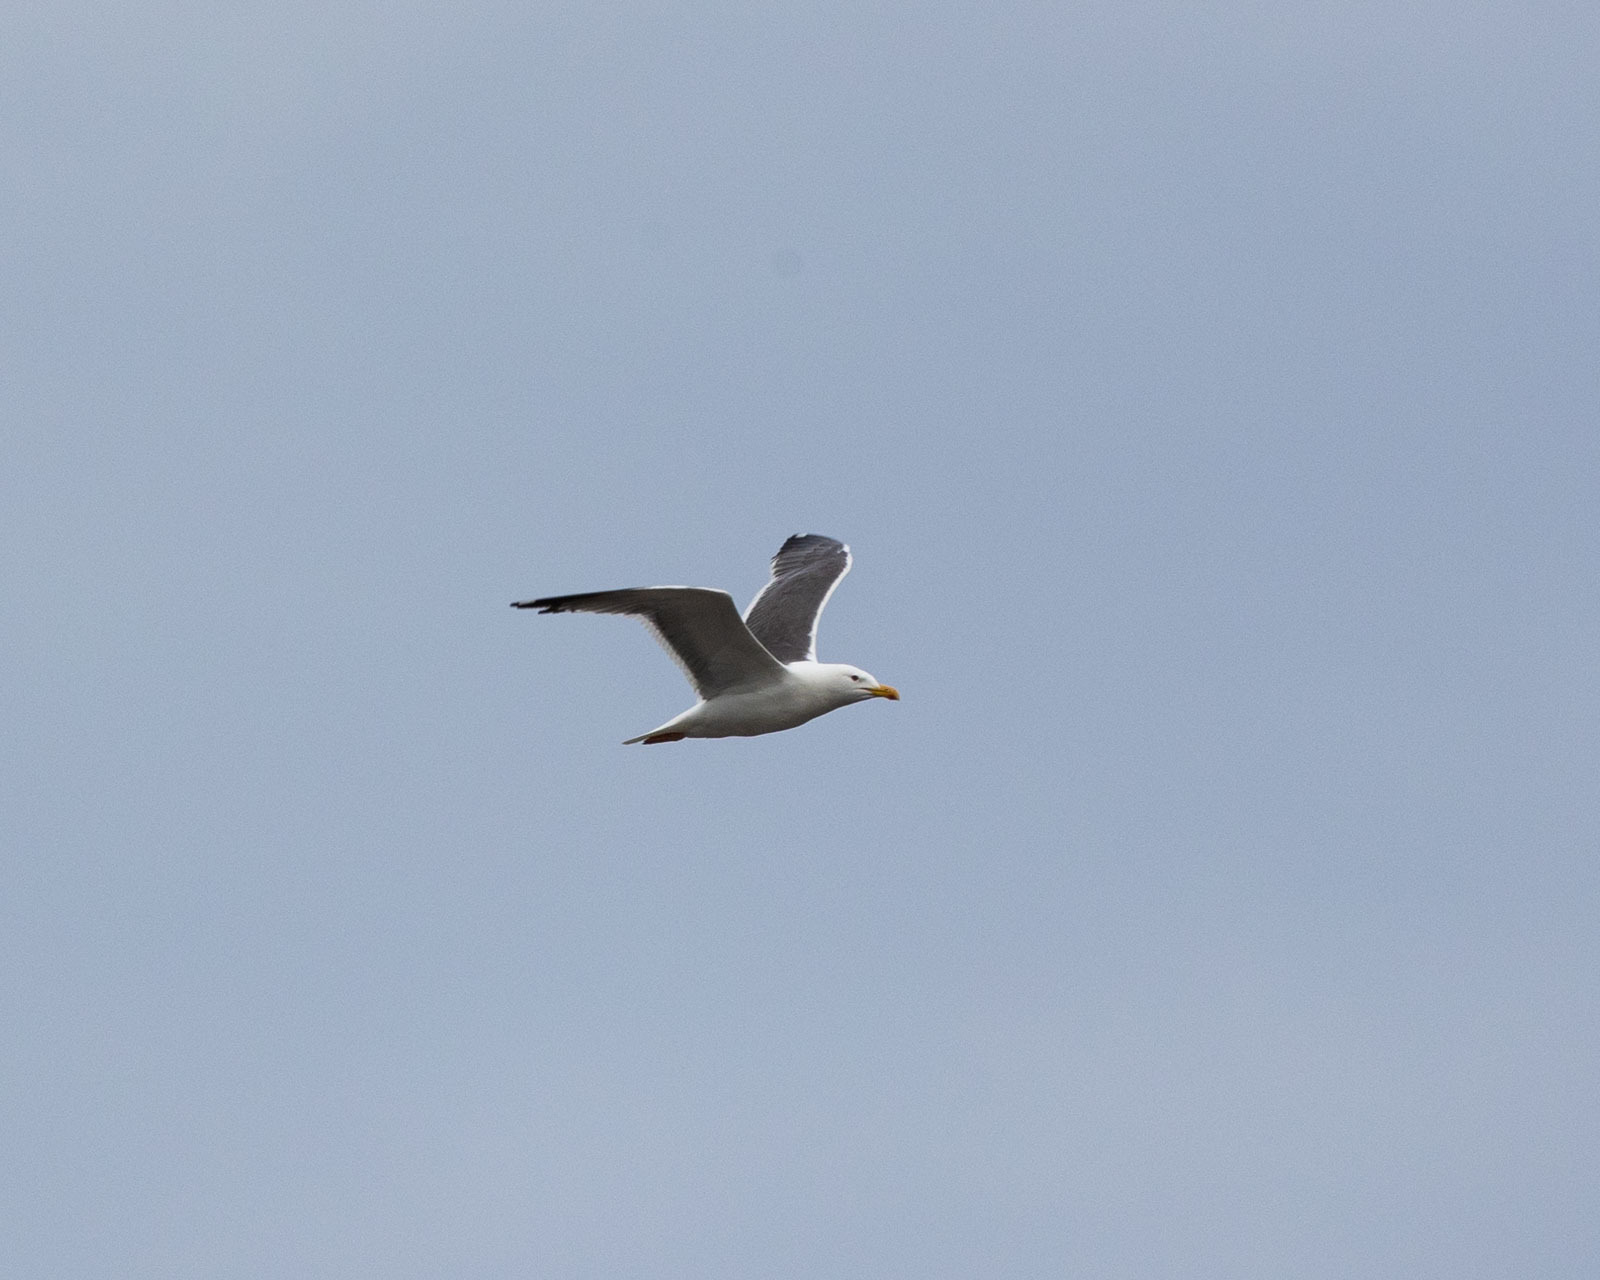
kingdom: Animalia
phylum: Chordata
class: Aves
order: Charadriiformes
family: Laridae
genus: Larus
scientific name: Larus fuscus
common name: Lesser black-backed gull
